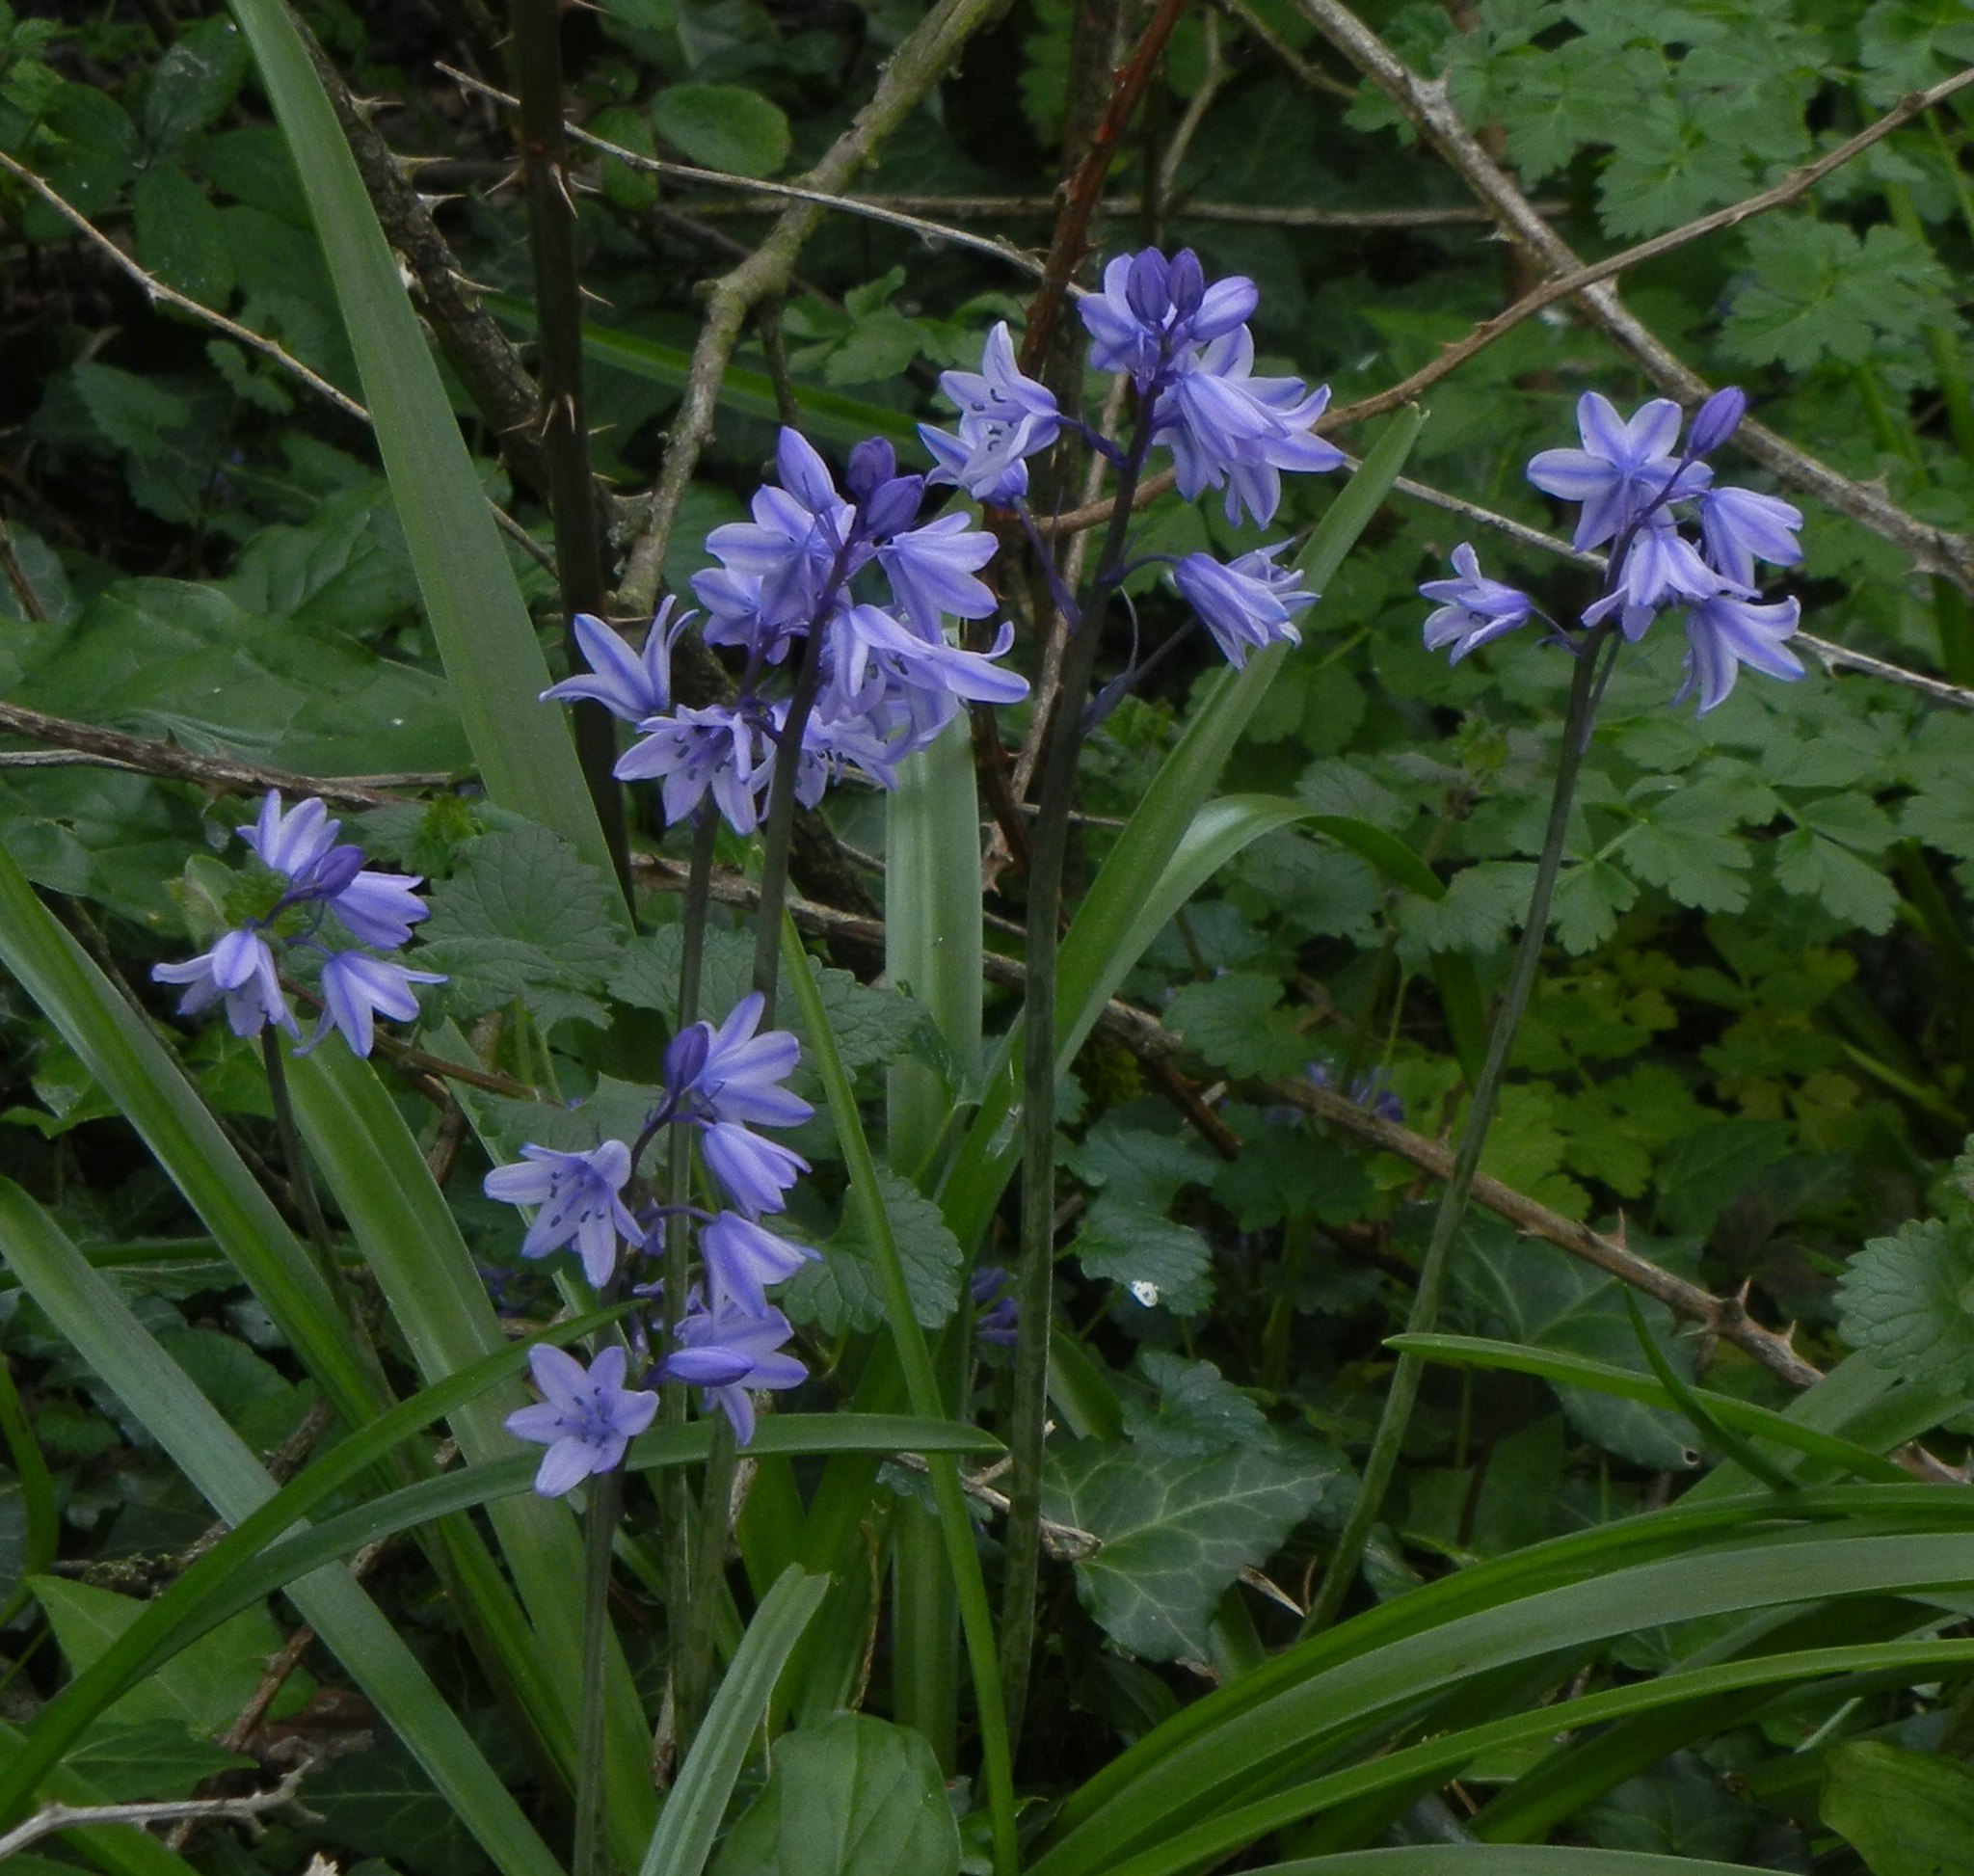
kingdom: Plantae
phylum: Tracheophyta
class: Liliopsida
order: Asparagales
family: Asparagaceae
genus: Hyacinthoides
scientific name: Hyacinthoides massartiana
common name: Hyacinthoides
